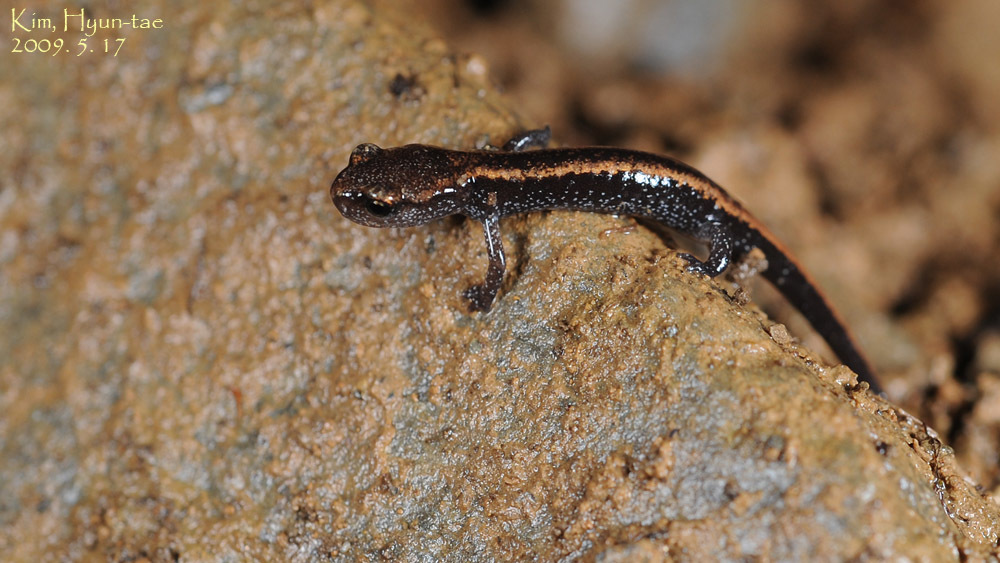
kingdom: Animalia
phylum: Chordata
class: Amphibia
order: Caudata
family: Plethodontidae
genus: Karsenia
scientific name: Karsenia koreana
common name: Korean crevice salamander
